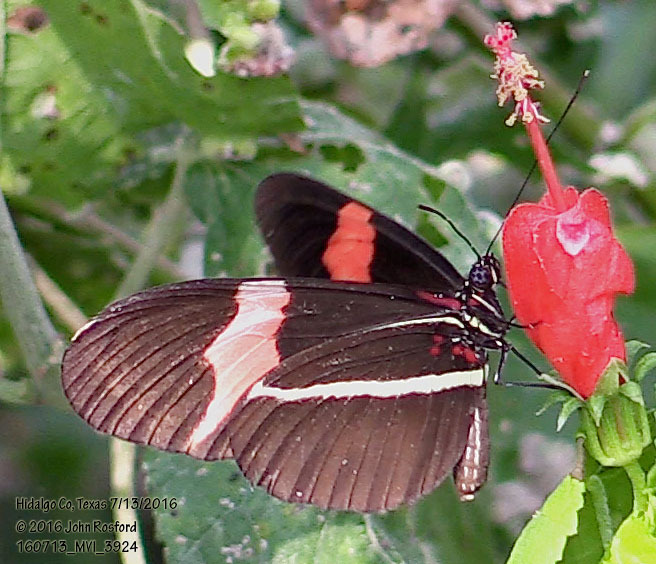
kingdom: Animalia
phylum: Arthropoda
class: Insecta
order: Lepidoptera
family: Nymphalidae
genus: Tirumala
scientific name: Tirumala petiverana
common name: Blue monarch
